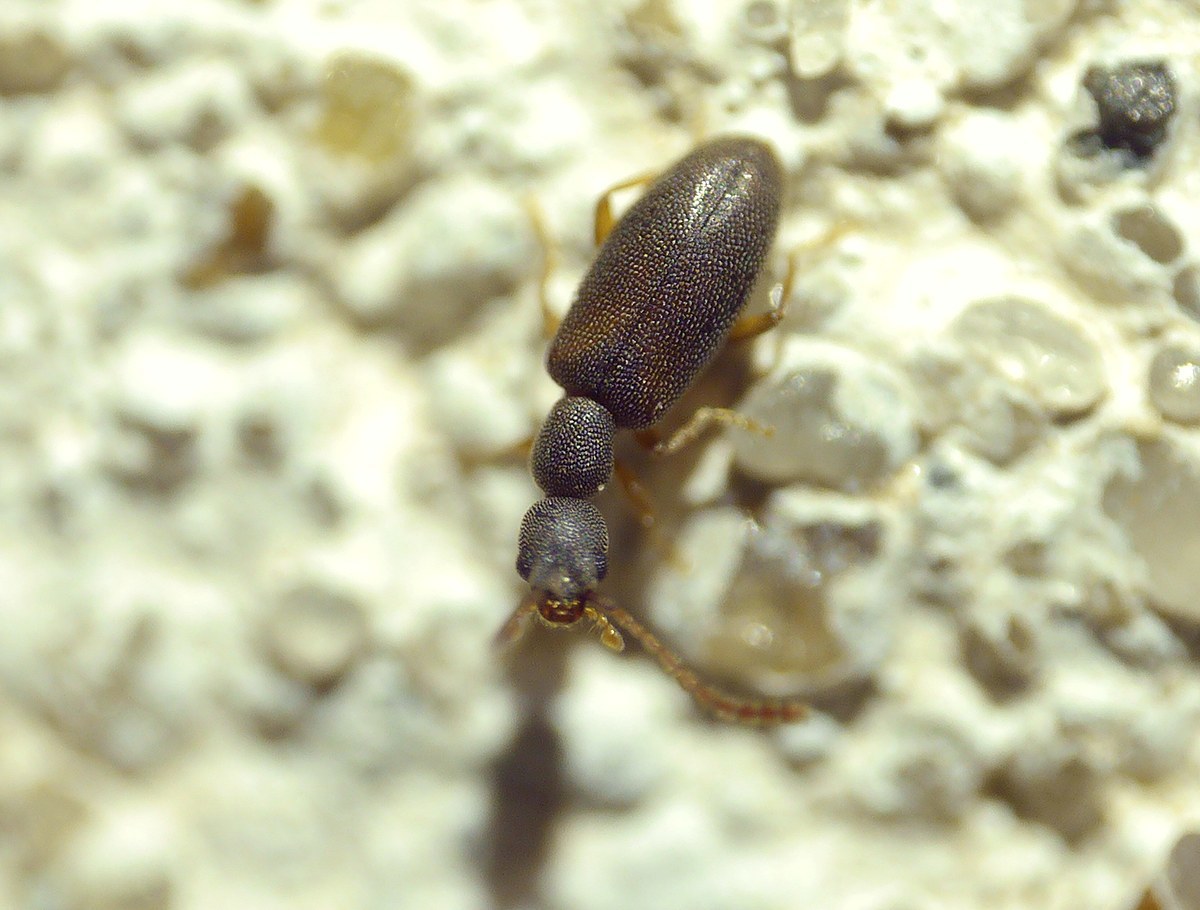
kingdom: Animalia
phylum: Arthropoda
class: Insecta
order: Coleoptera
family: Anthicidae
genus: Endomia
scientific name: Endomia tenuicollis
